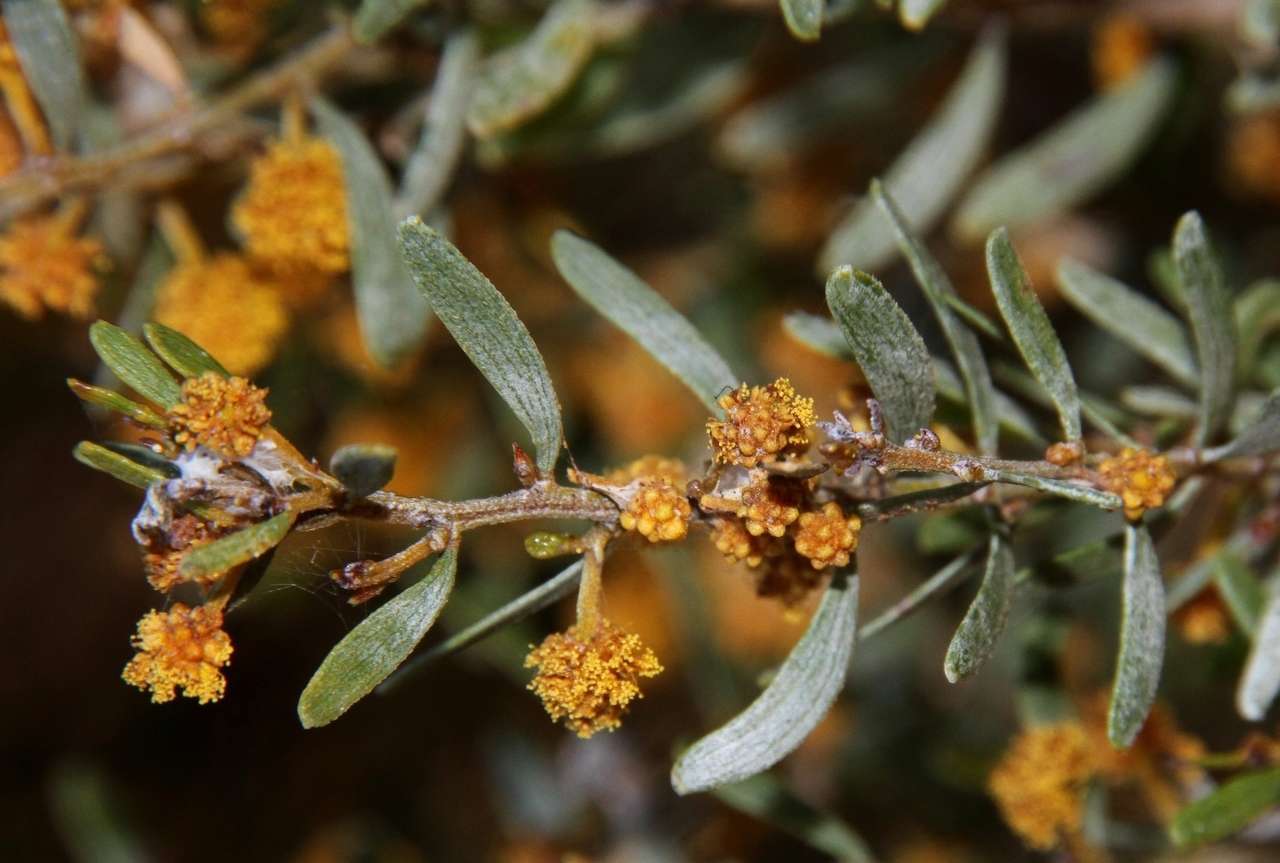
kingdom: Plantae
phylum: Tracheophyta
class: Magnoliopsida
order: Fabales
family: Fabaceae
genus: Acacia
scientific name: Acacia wilhelmiana
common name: Dwarf nealie
